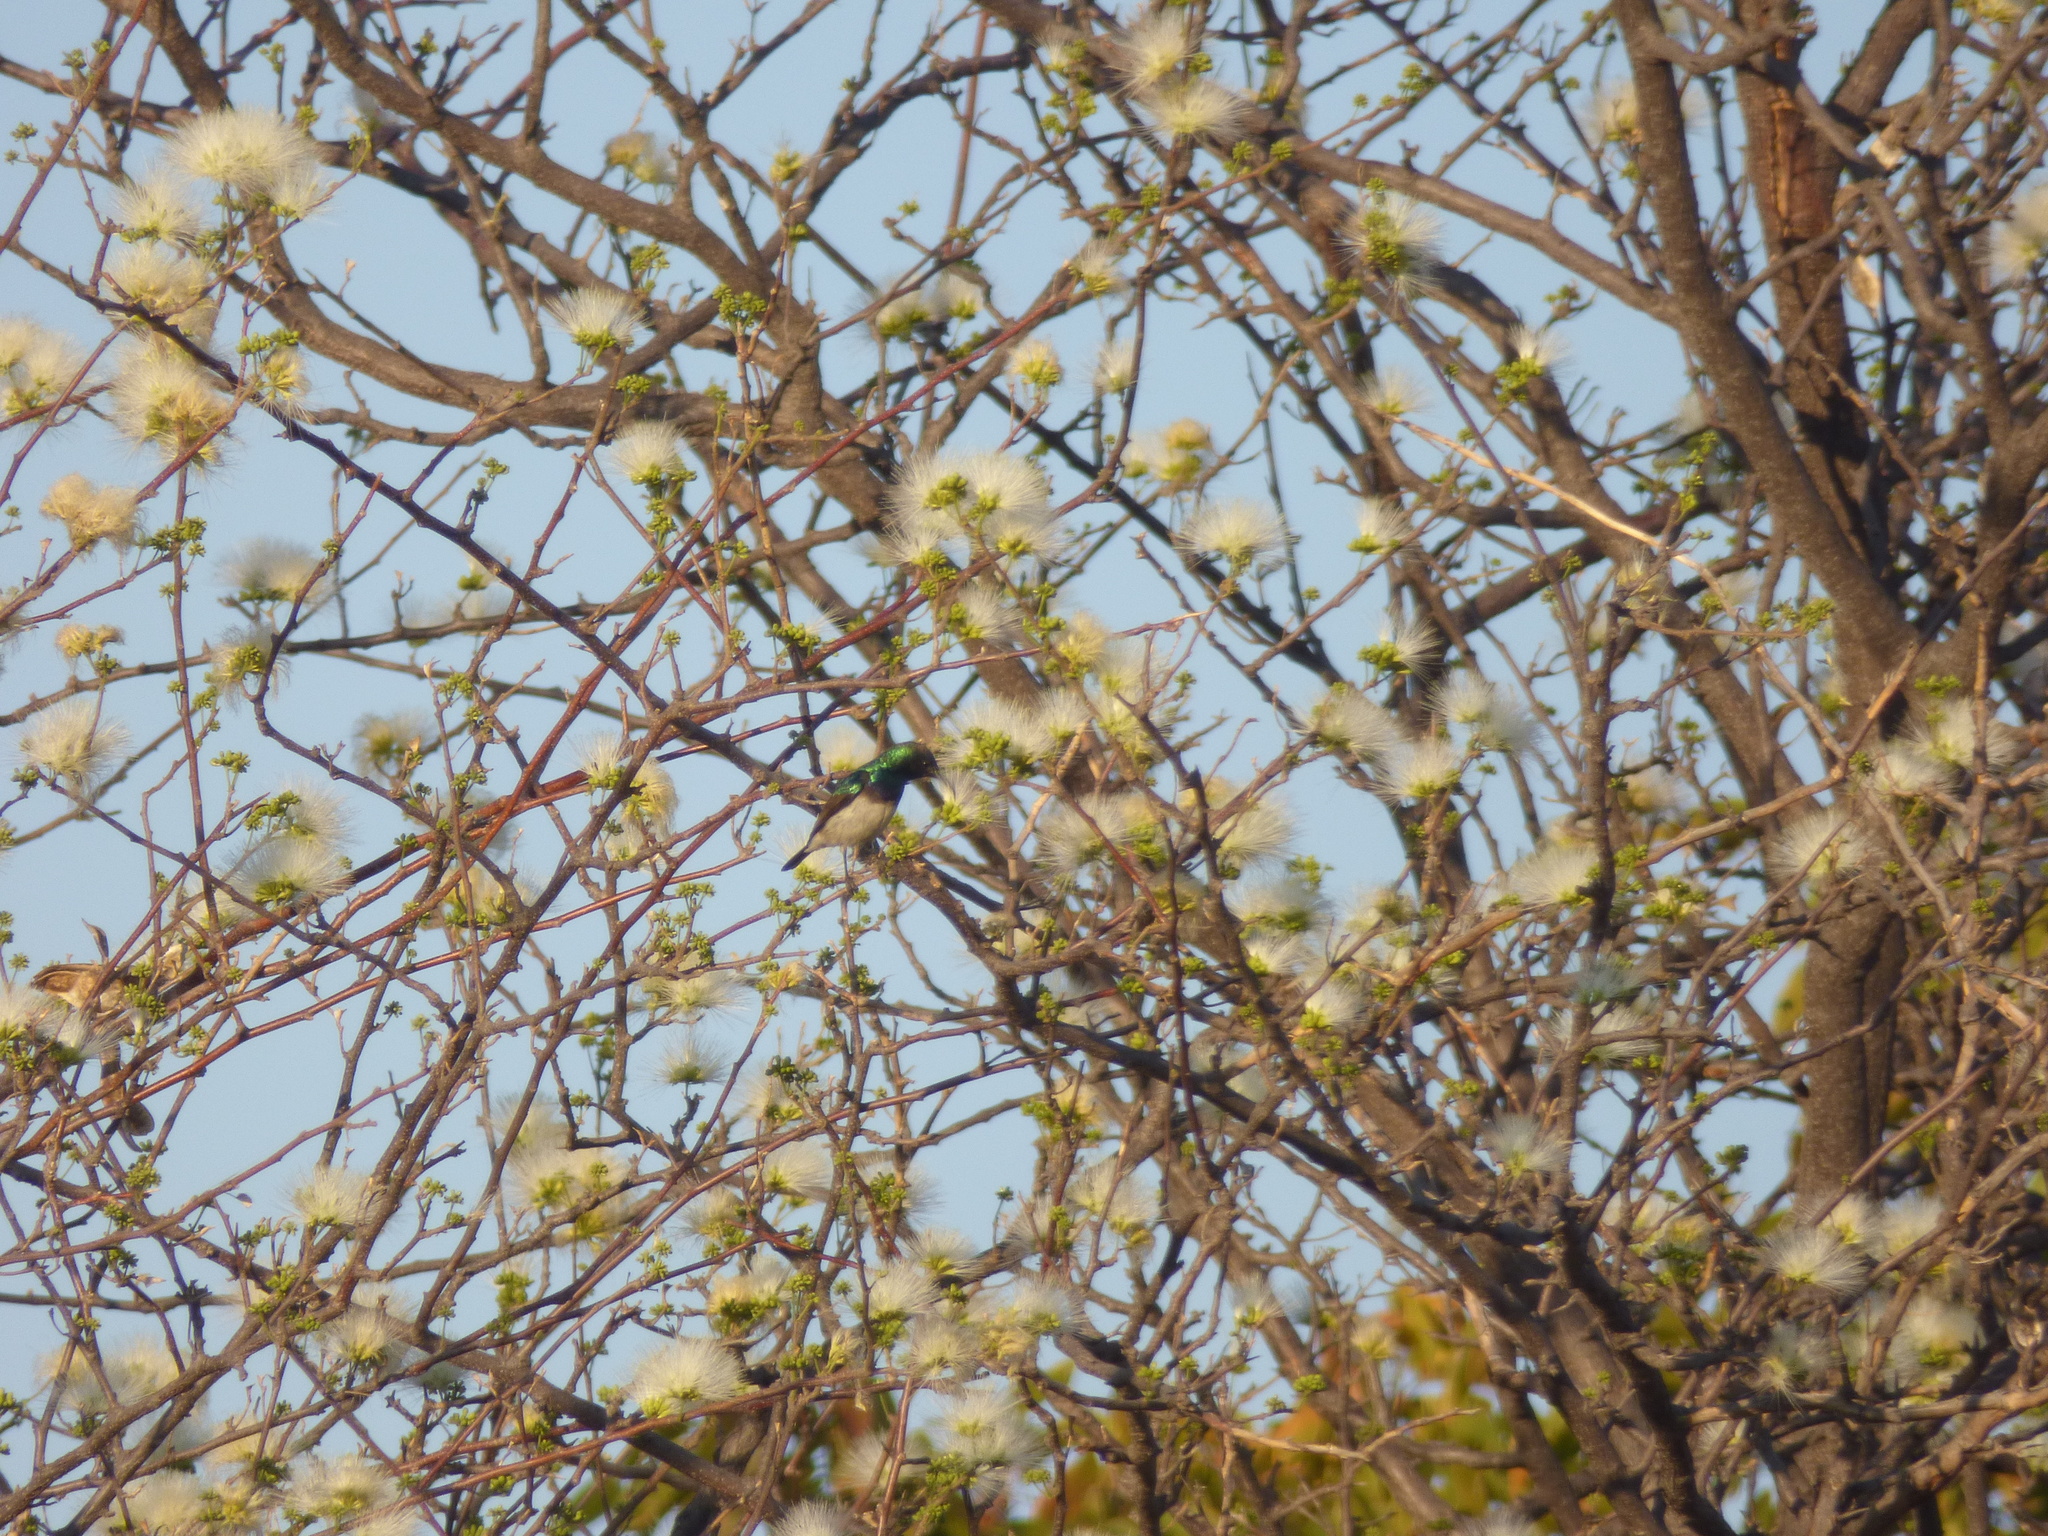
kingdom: Animalia
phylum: Chordata
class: Aves
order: Passeriformes
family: Nectariniidae
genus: Cinnyris
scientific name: Cinnyris talatala
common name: White-bellied sunbird
